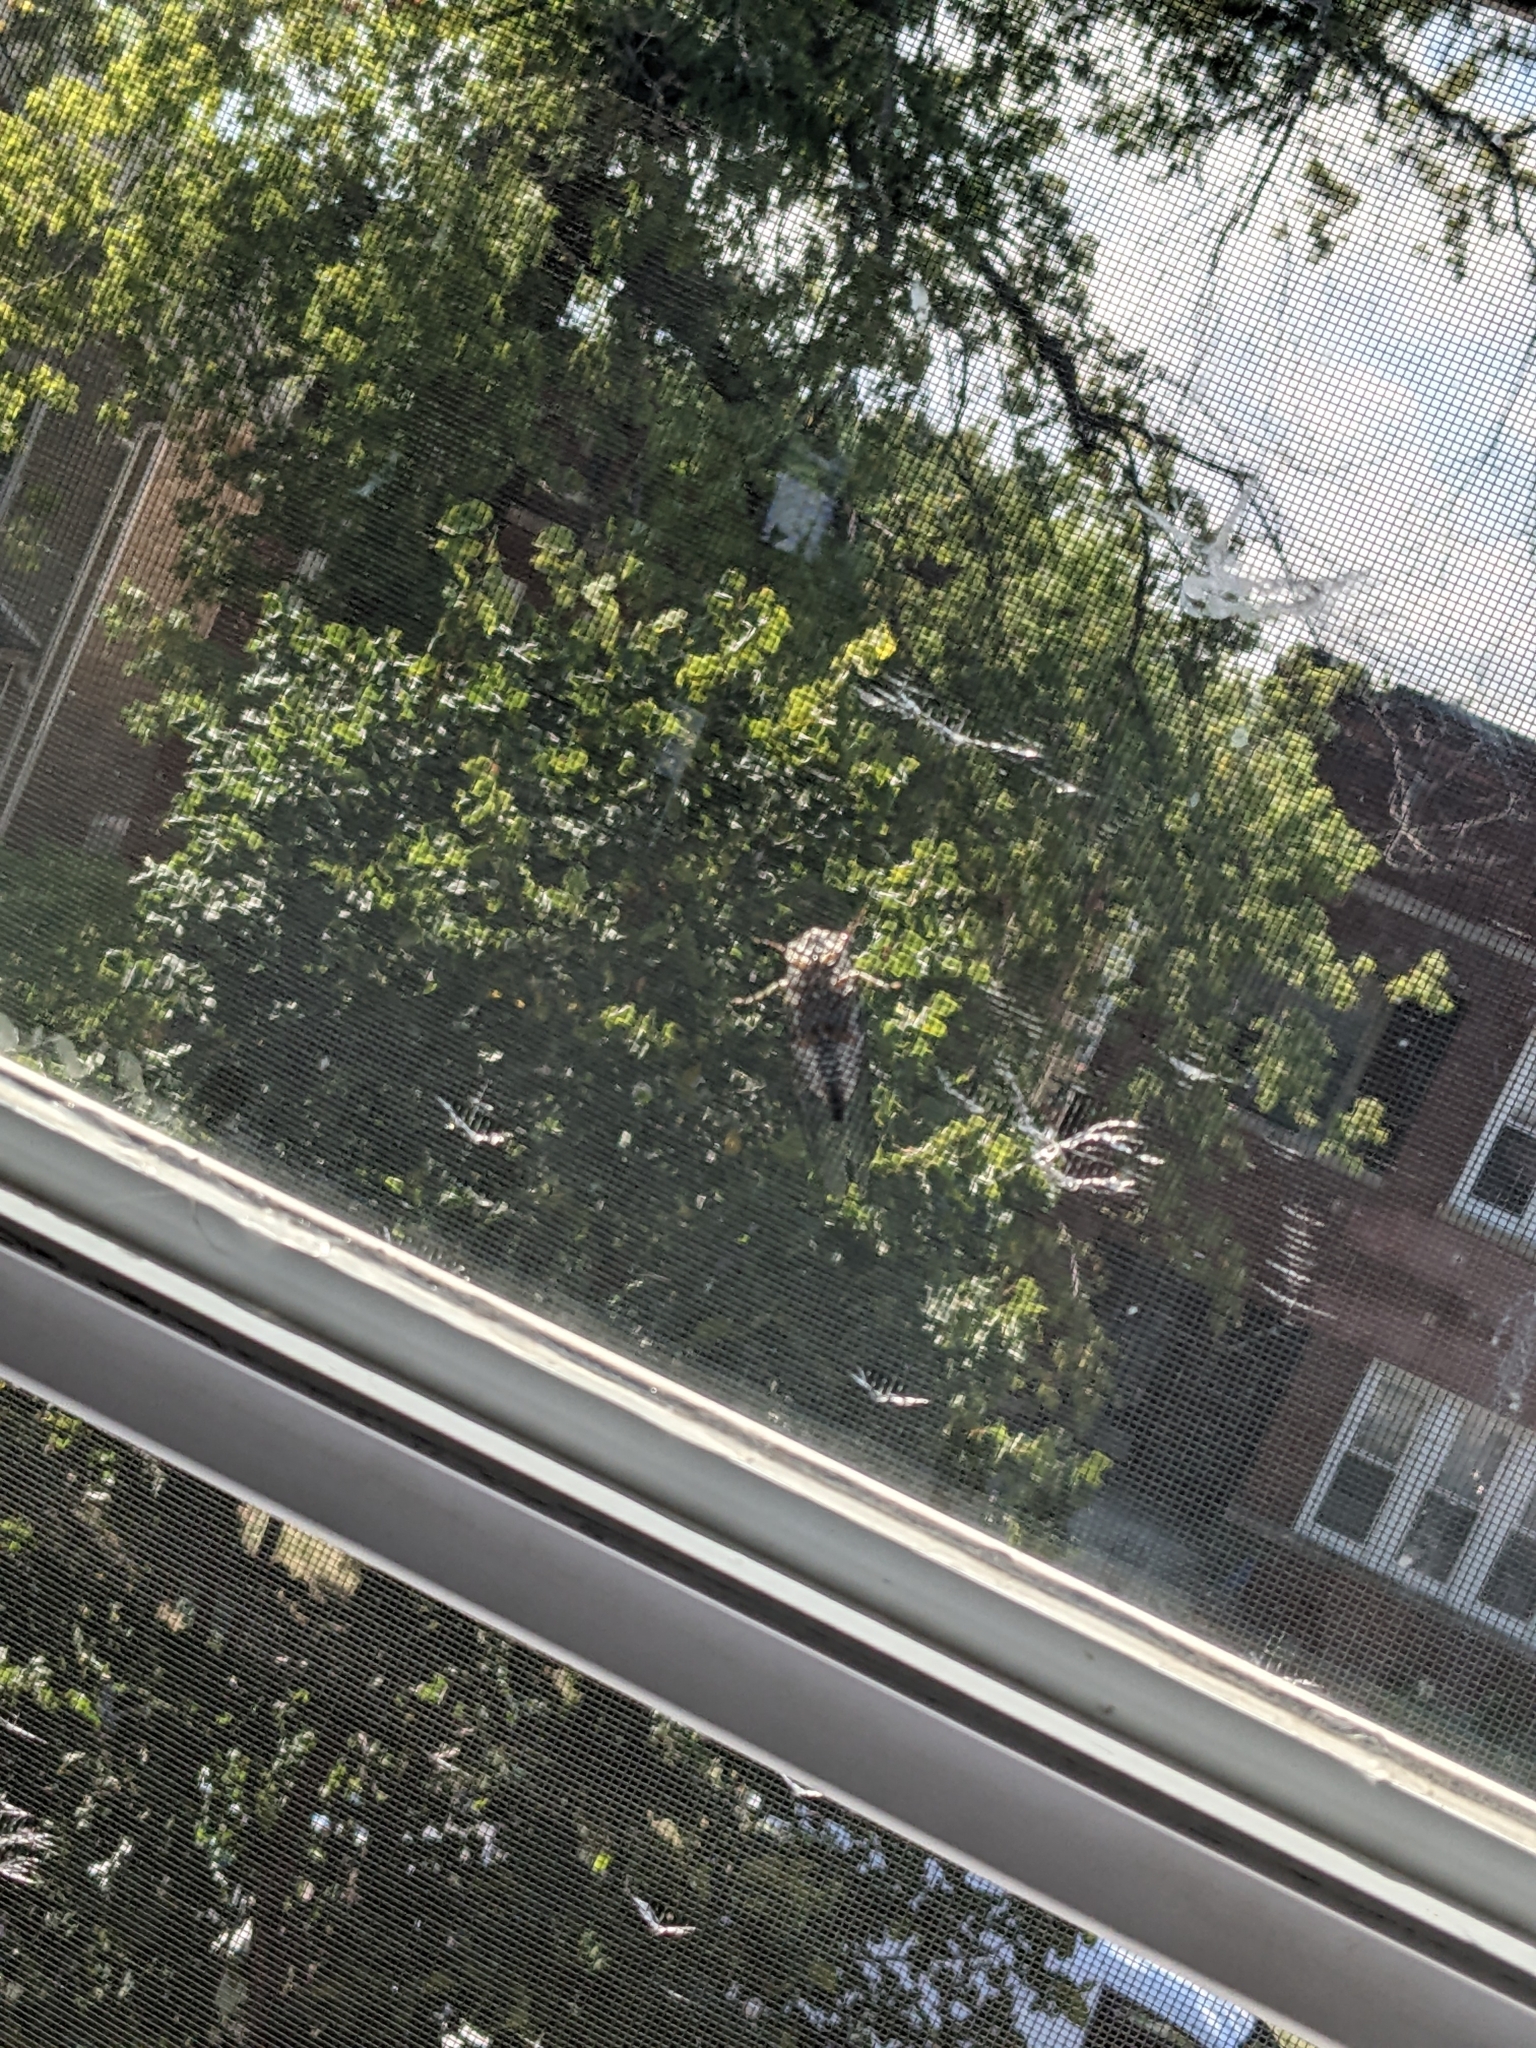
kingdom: Animalia
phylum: Arthropoda
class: Insecta
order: Hemiptera
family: Cicadidae
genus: Neotibicen
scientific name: Neotibicen pruinosus
